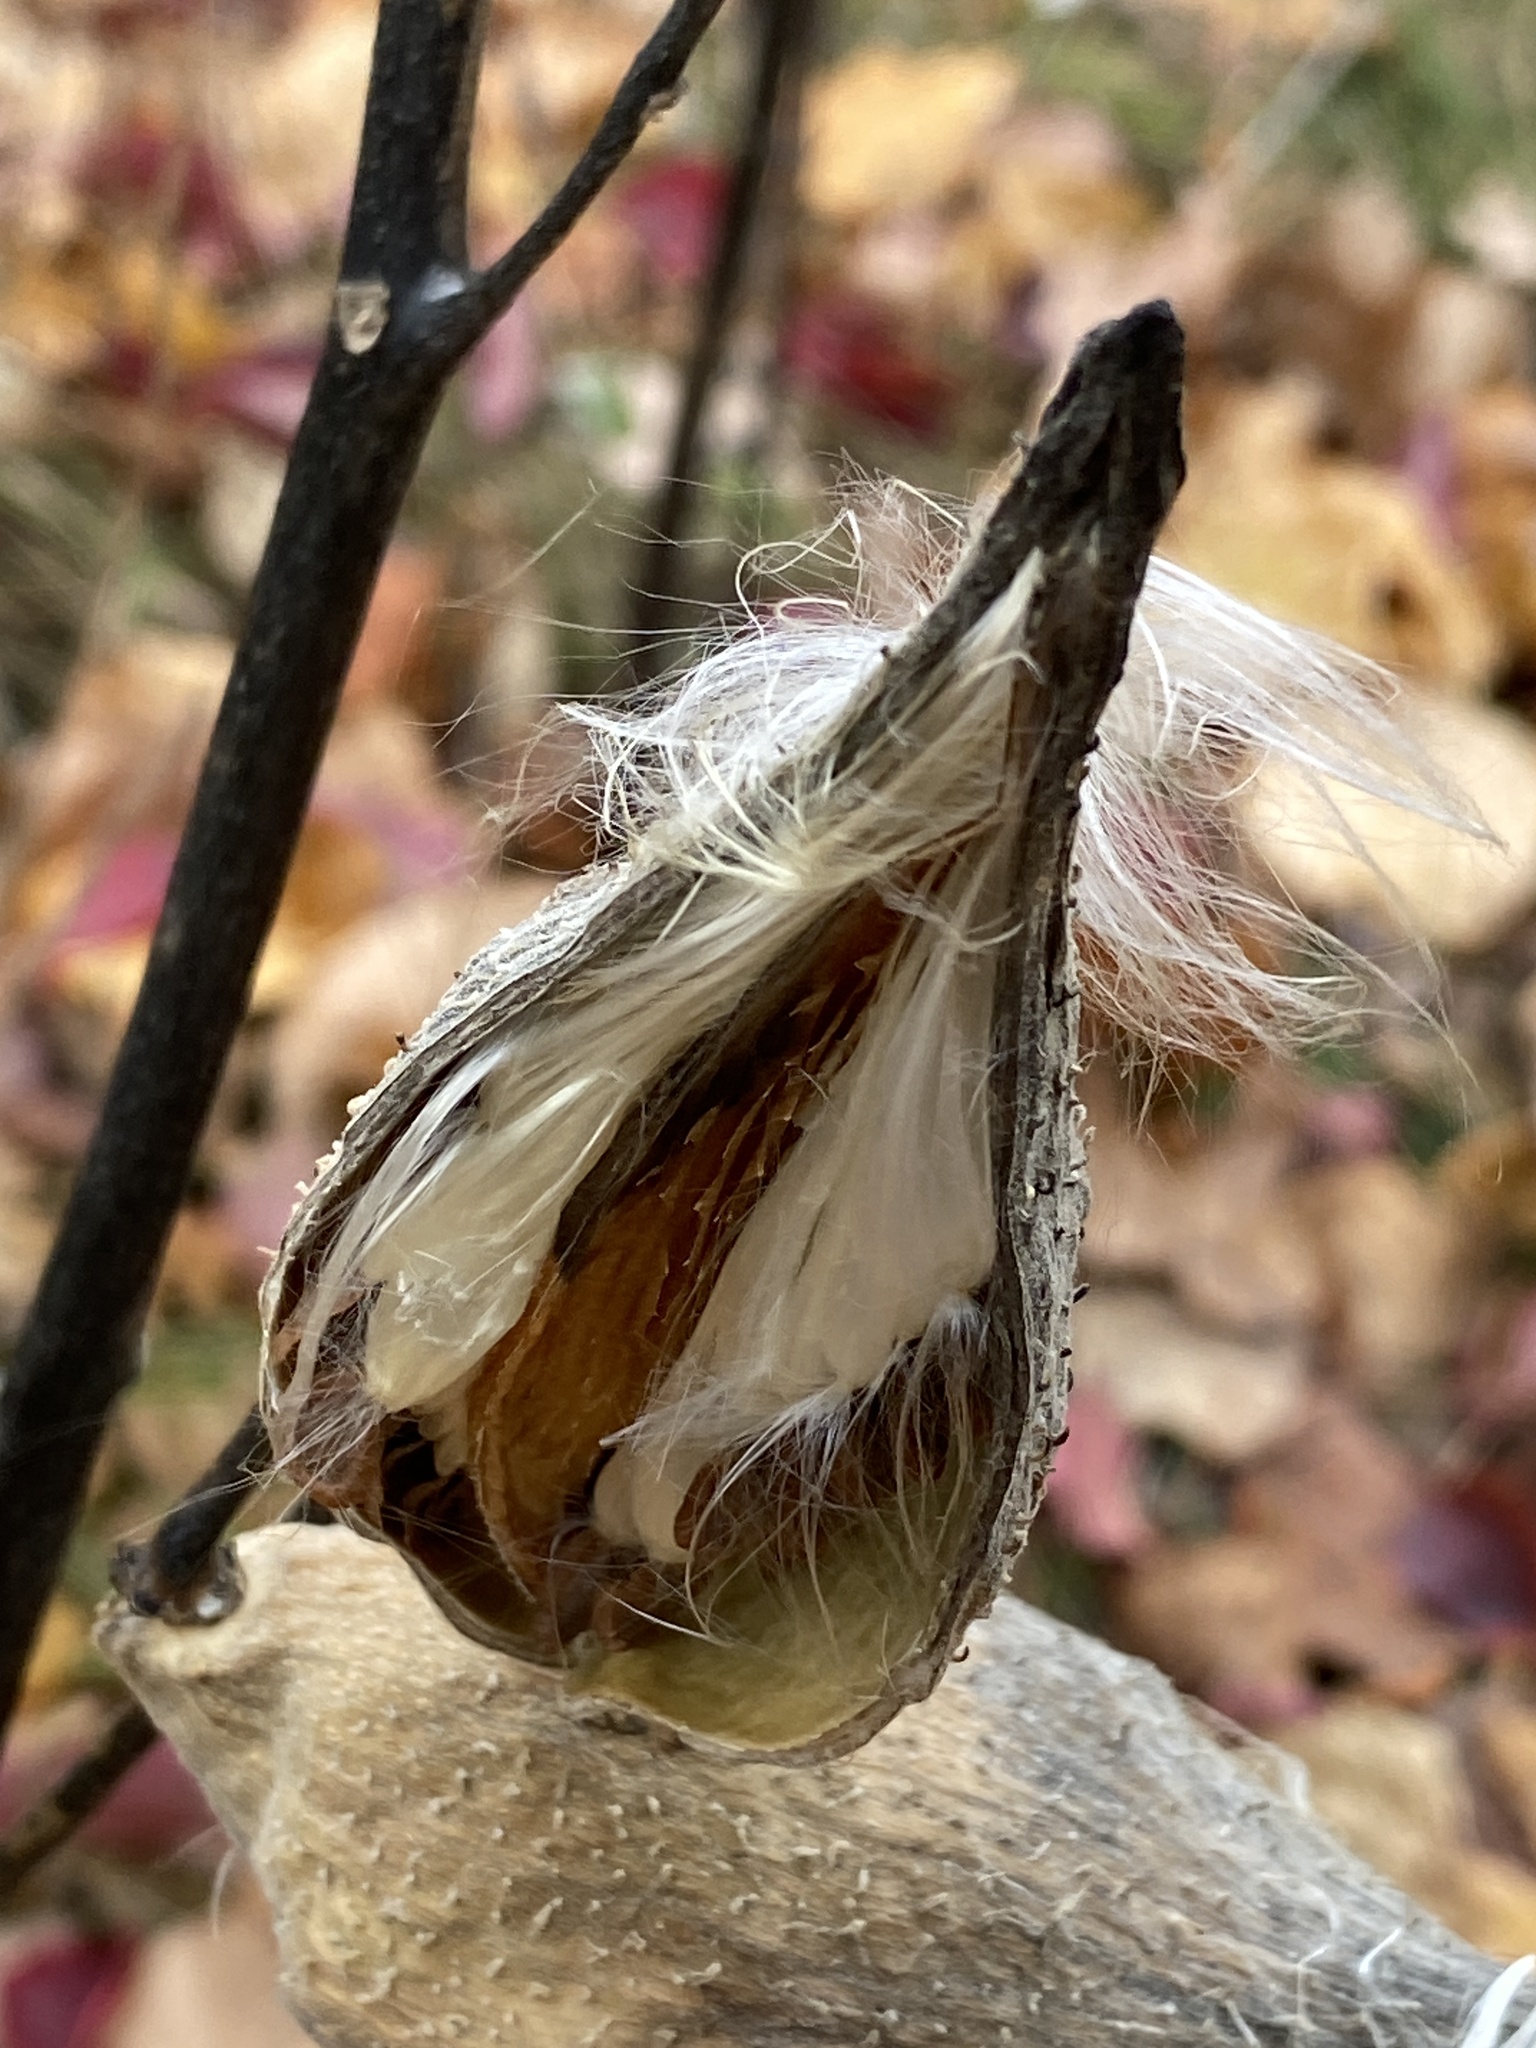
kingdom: Plantae
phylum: Tracheophyta
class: Magnoliopsida
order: Gentianales
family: Apocynaceae
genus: Asclepias
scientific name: Asclepias syriaca
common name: Common milkweed
